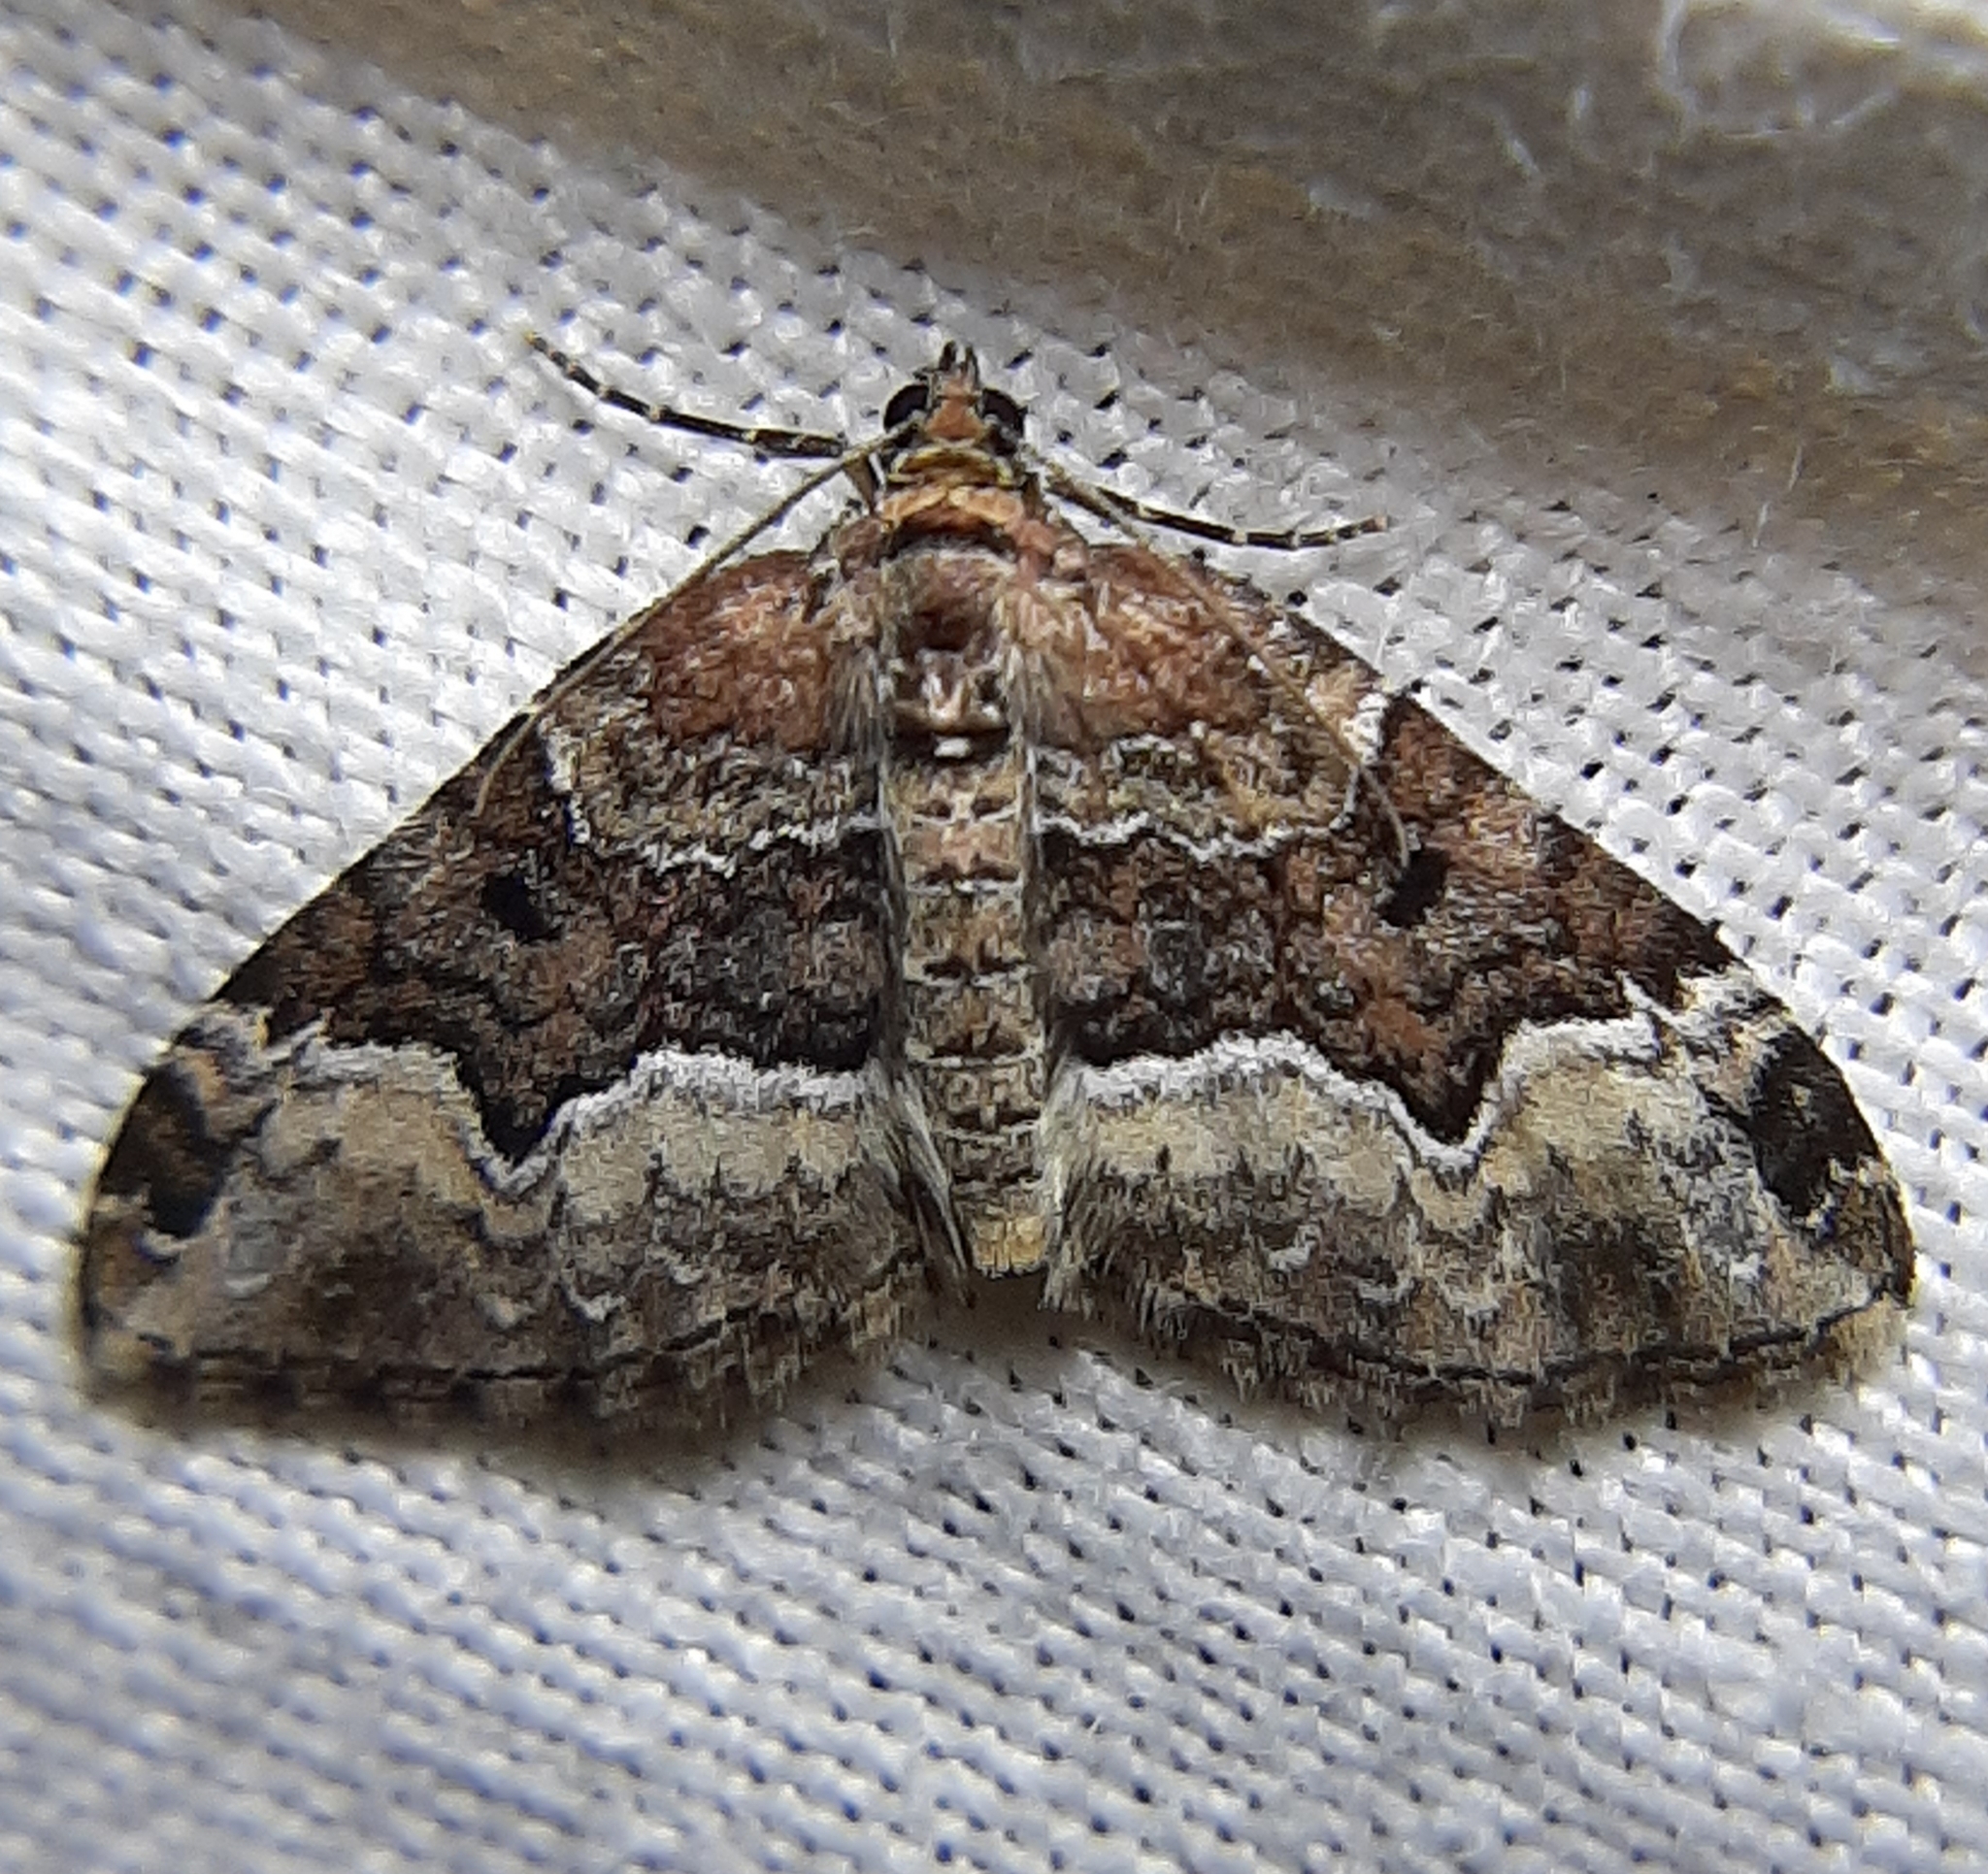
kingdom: Animalia
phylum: Arthropoda
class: Insecta
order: Lepidoptera
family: Geometridae
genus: Euphyia
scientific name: Euphyia intermediata
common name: Sharp-angled carpet
